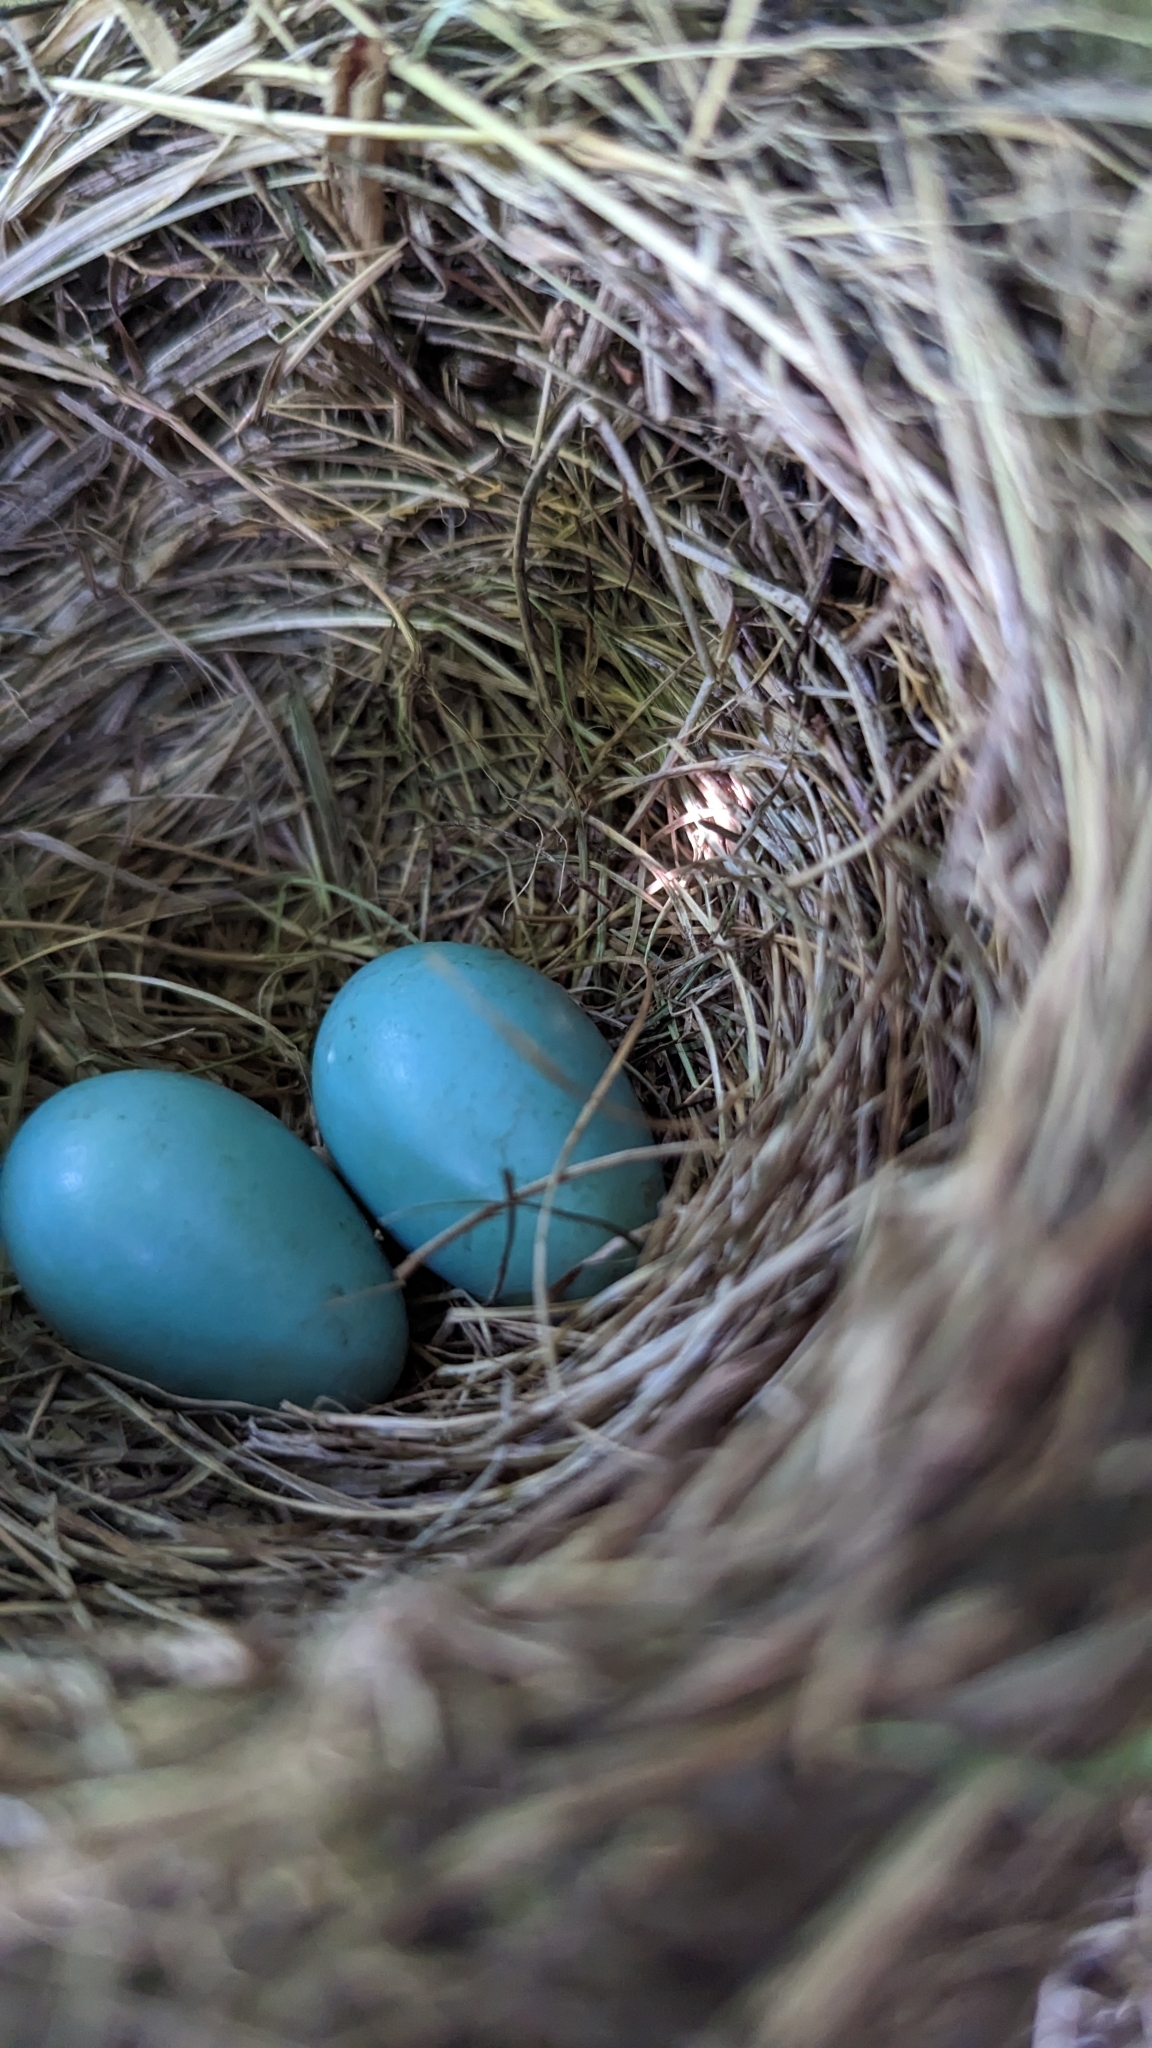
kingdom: Animalia
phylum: Chordata
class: Aves
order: Passeriformes
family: Turdidae
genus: Turdus
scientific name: Turdus migratorius
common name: American robin
